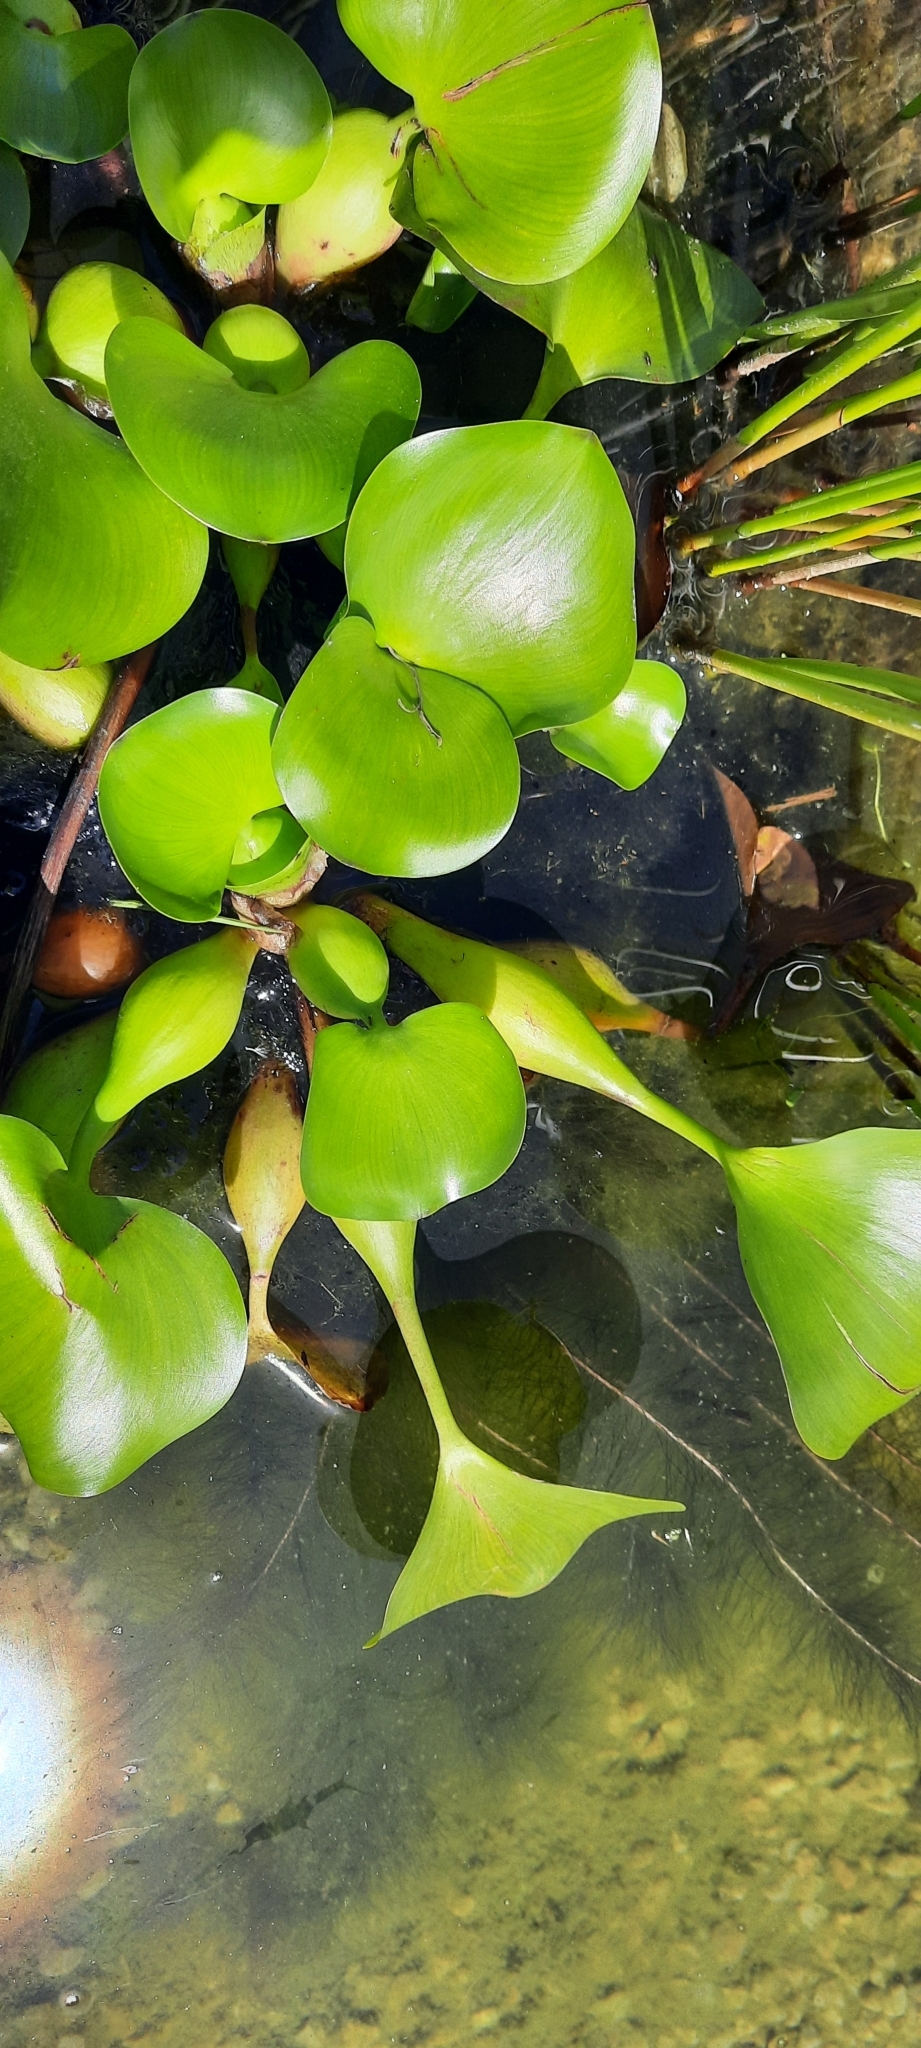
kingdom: Plantae
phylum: Tracheophyta
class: Liliopsida
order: Commelinales
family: Pontederiaceae
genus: Pontederia
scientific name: Pontederia crassipes
